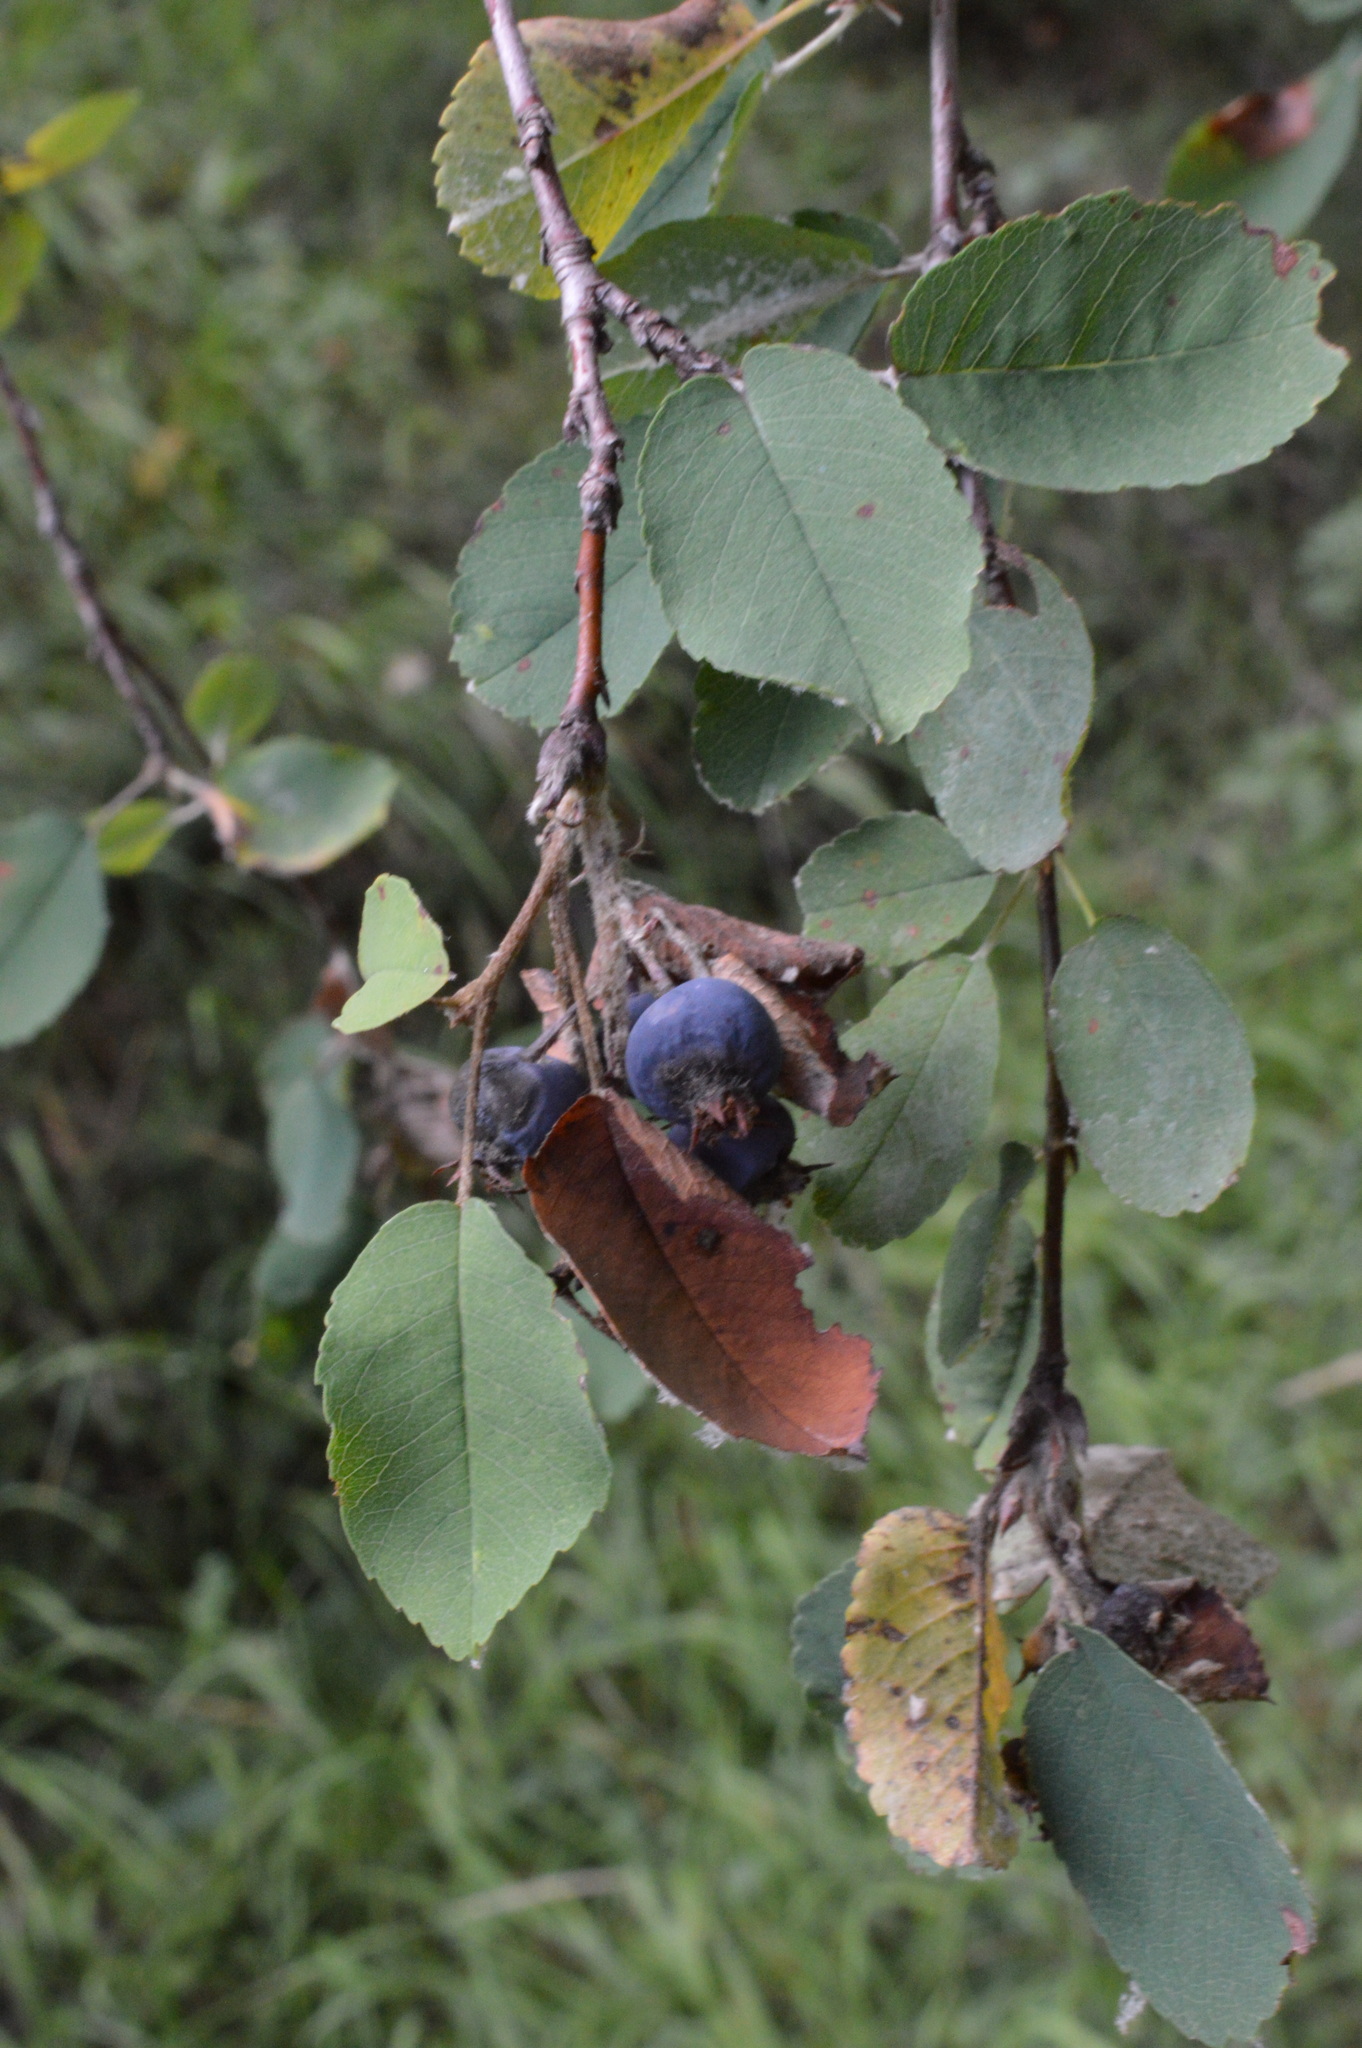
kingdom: Plantae
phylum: Tracheophyta
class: Magnoliopsida
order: Rosales
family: Rosaceae
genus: Amelanchier
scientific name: Amelanchier ovalis
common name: Serviceberry
